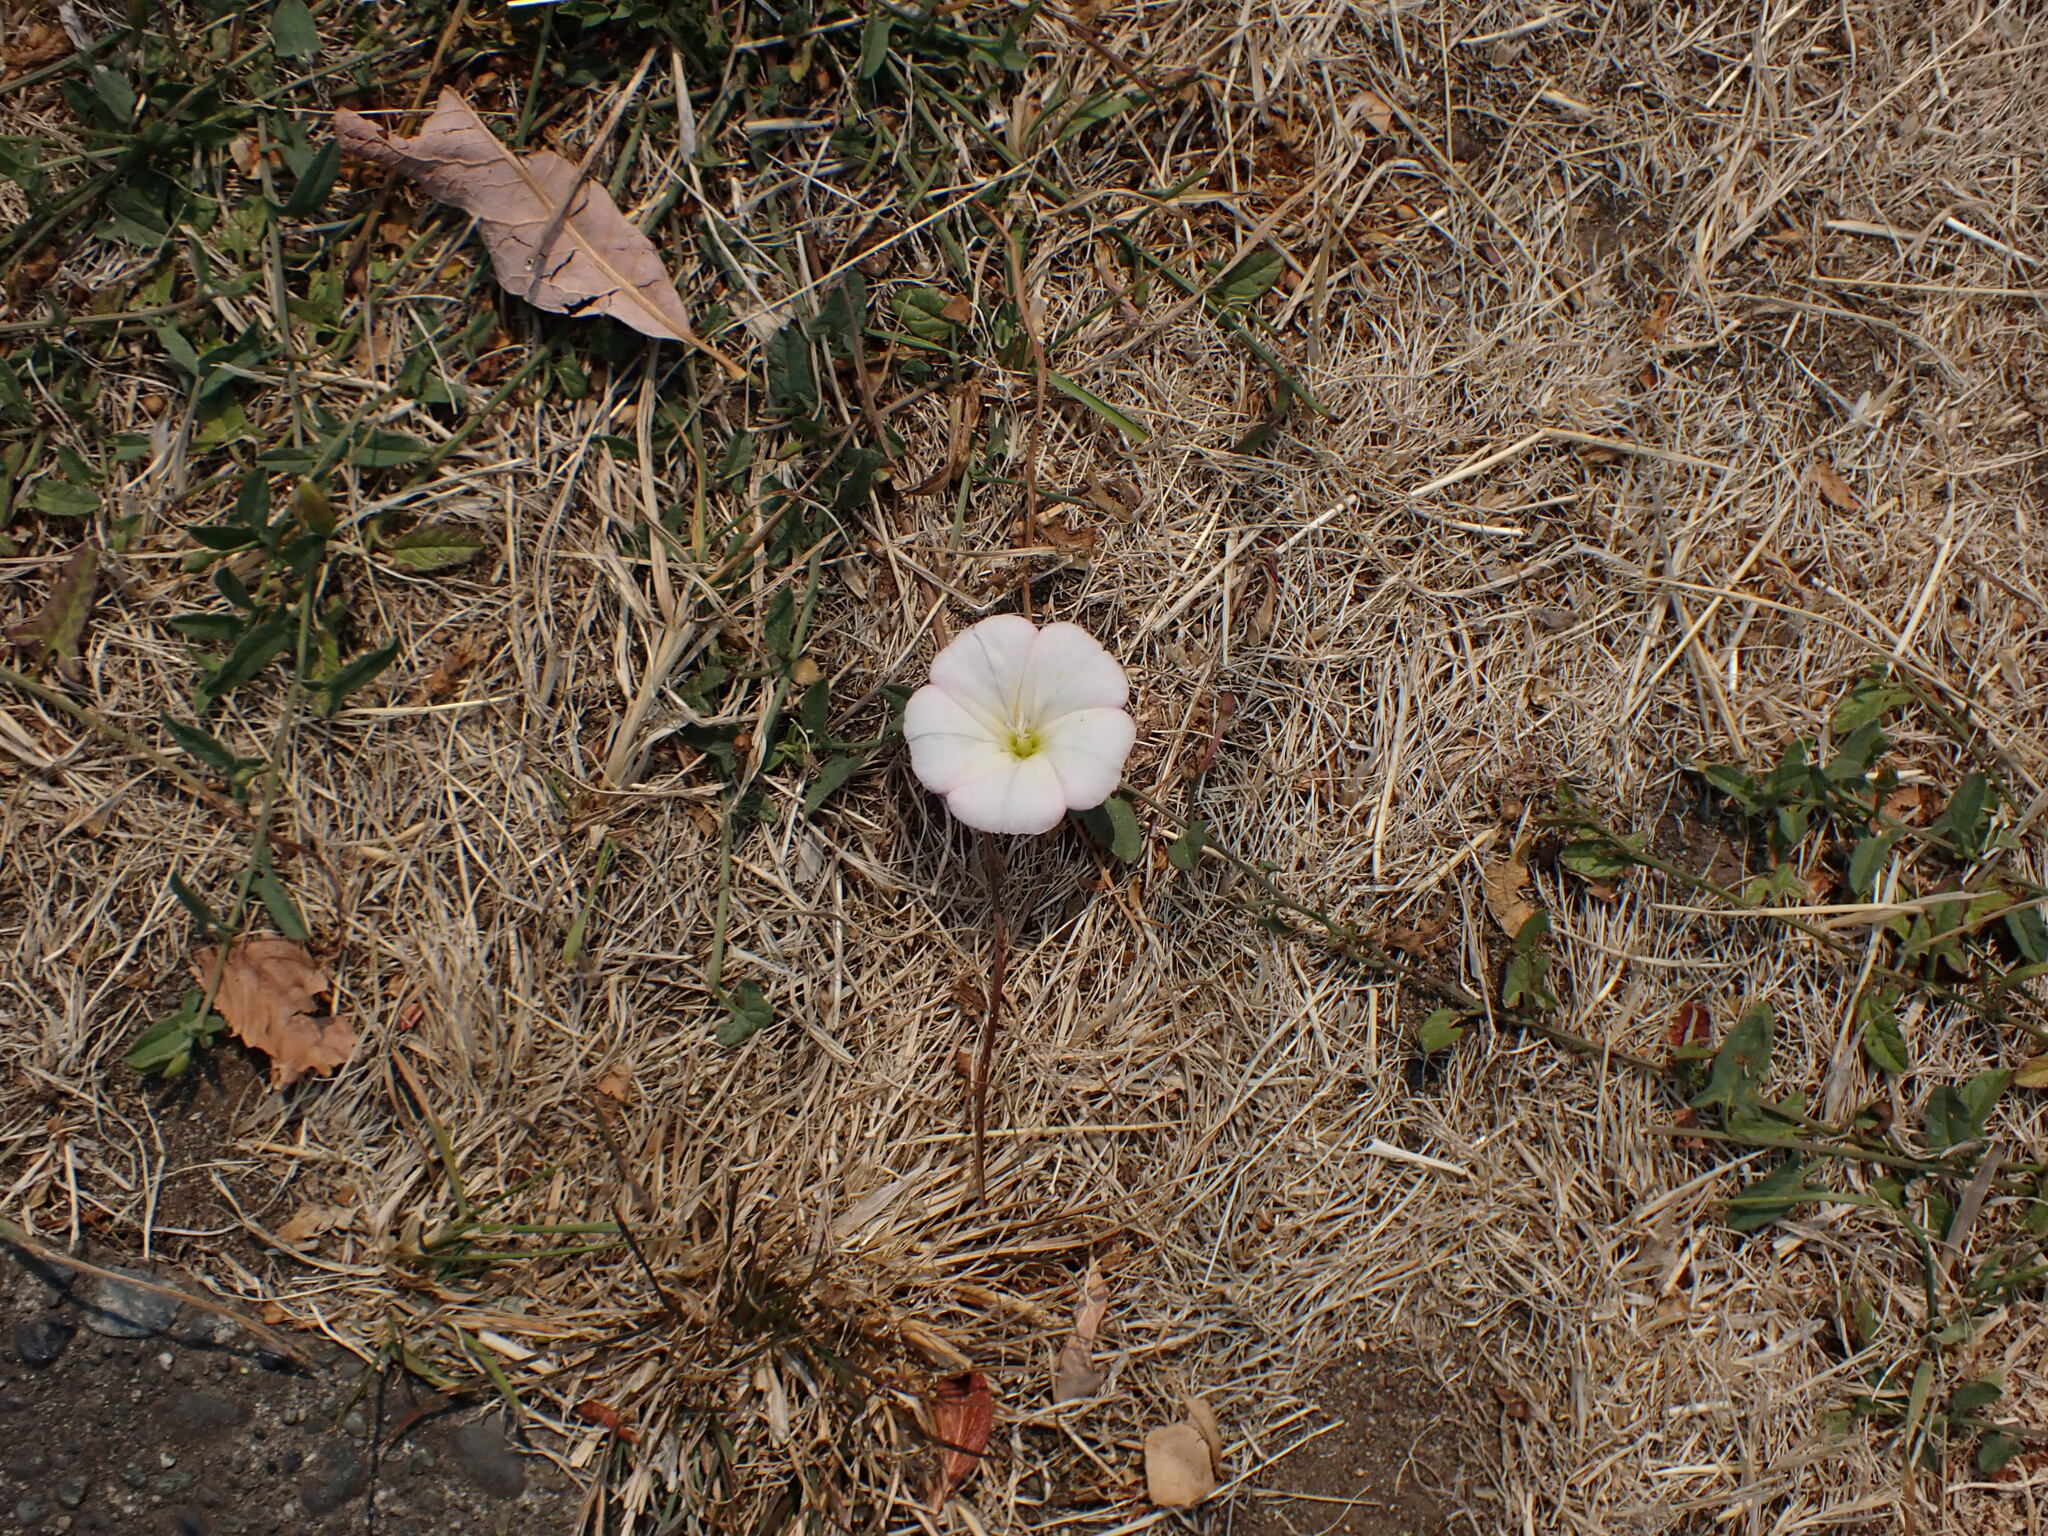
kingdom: Plantae
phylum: Tracheophyta
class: Magnoliopsida
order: Solanales
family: Convolvulaceae
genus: Convolvulus
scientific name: Convolvulus arvensis
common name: Field bindweed
